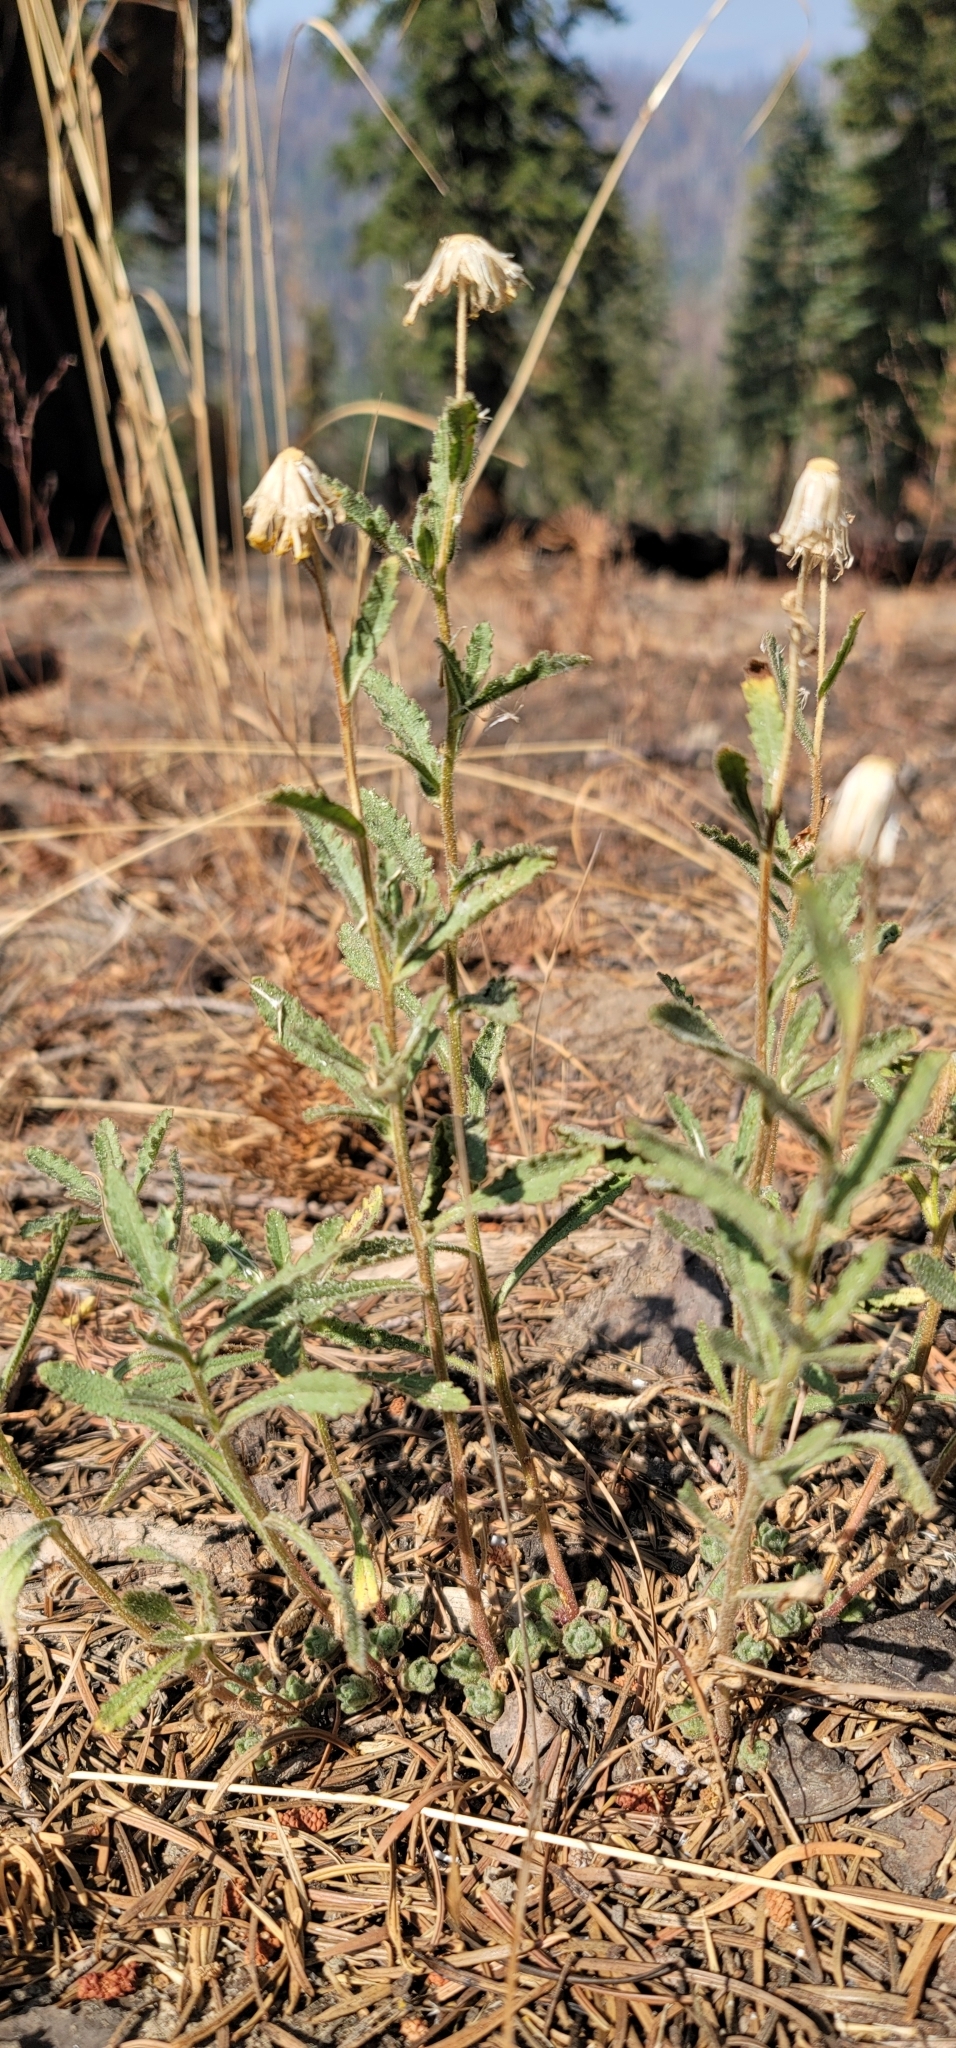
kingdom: Plantae
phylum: Tracheophyta
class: Magnoliopsida
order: Asterales
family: Asteraceae
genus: Hulsea
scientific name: Hulsea brevifolia
